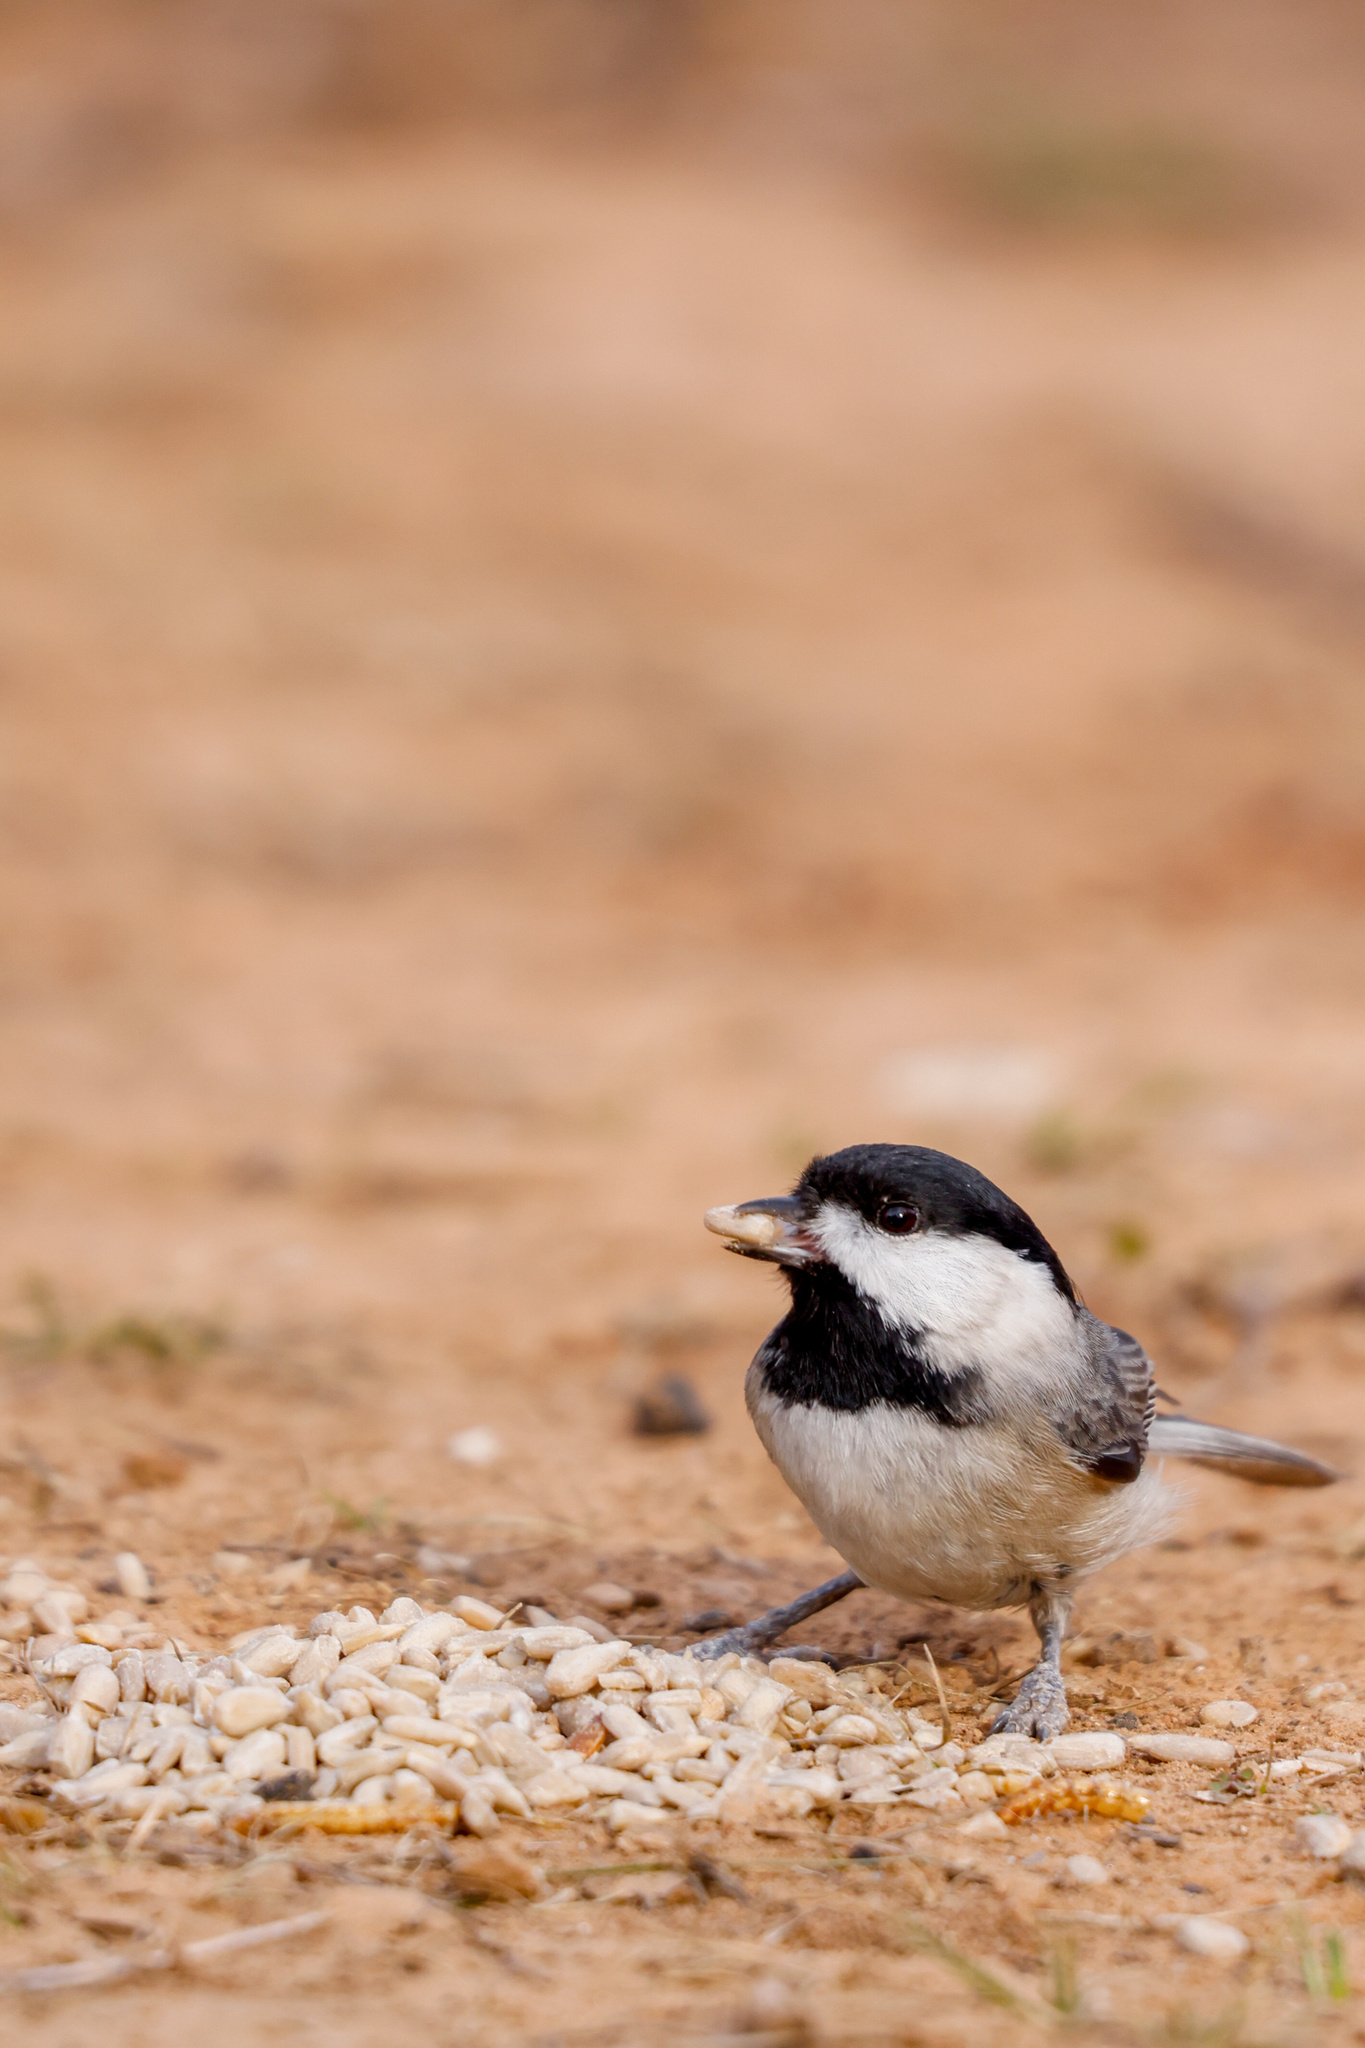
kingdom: Animalia
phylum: Chordata
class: Aves
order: Passeriformes
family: Paridae
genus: Poecile
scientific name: Poecile carolinensis
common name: Carolina chickadee
